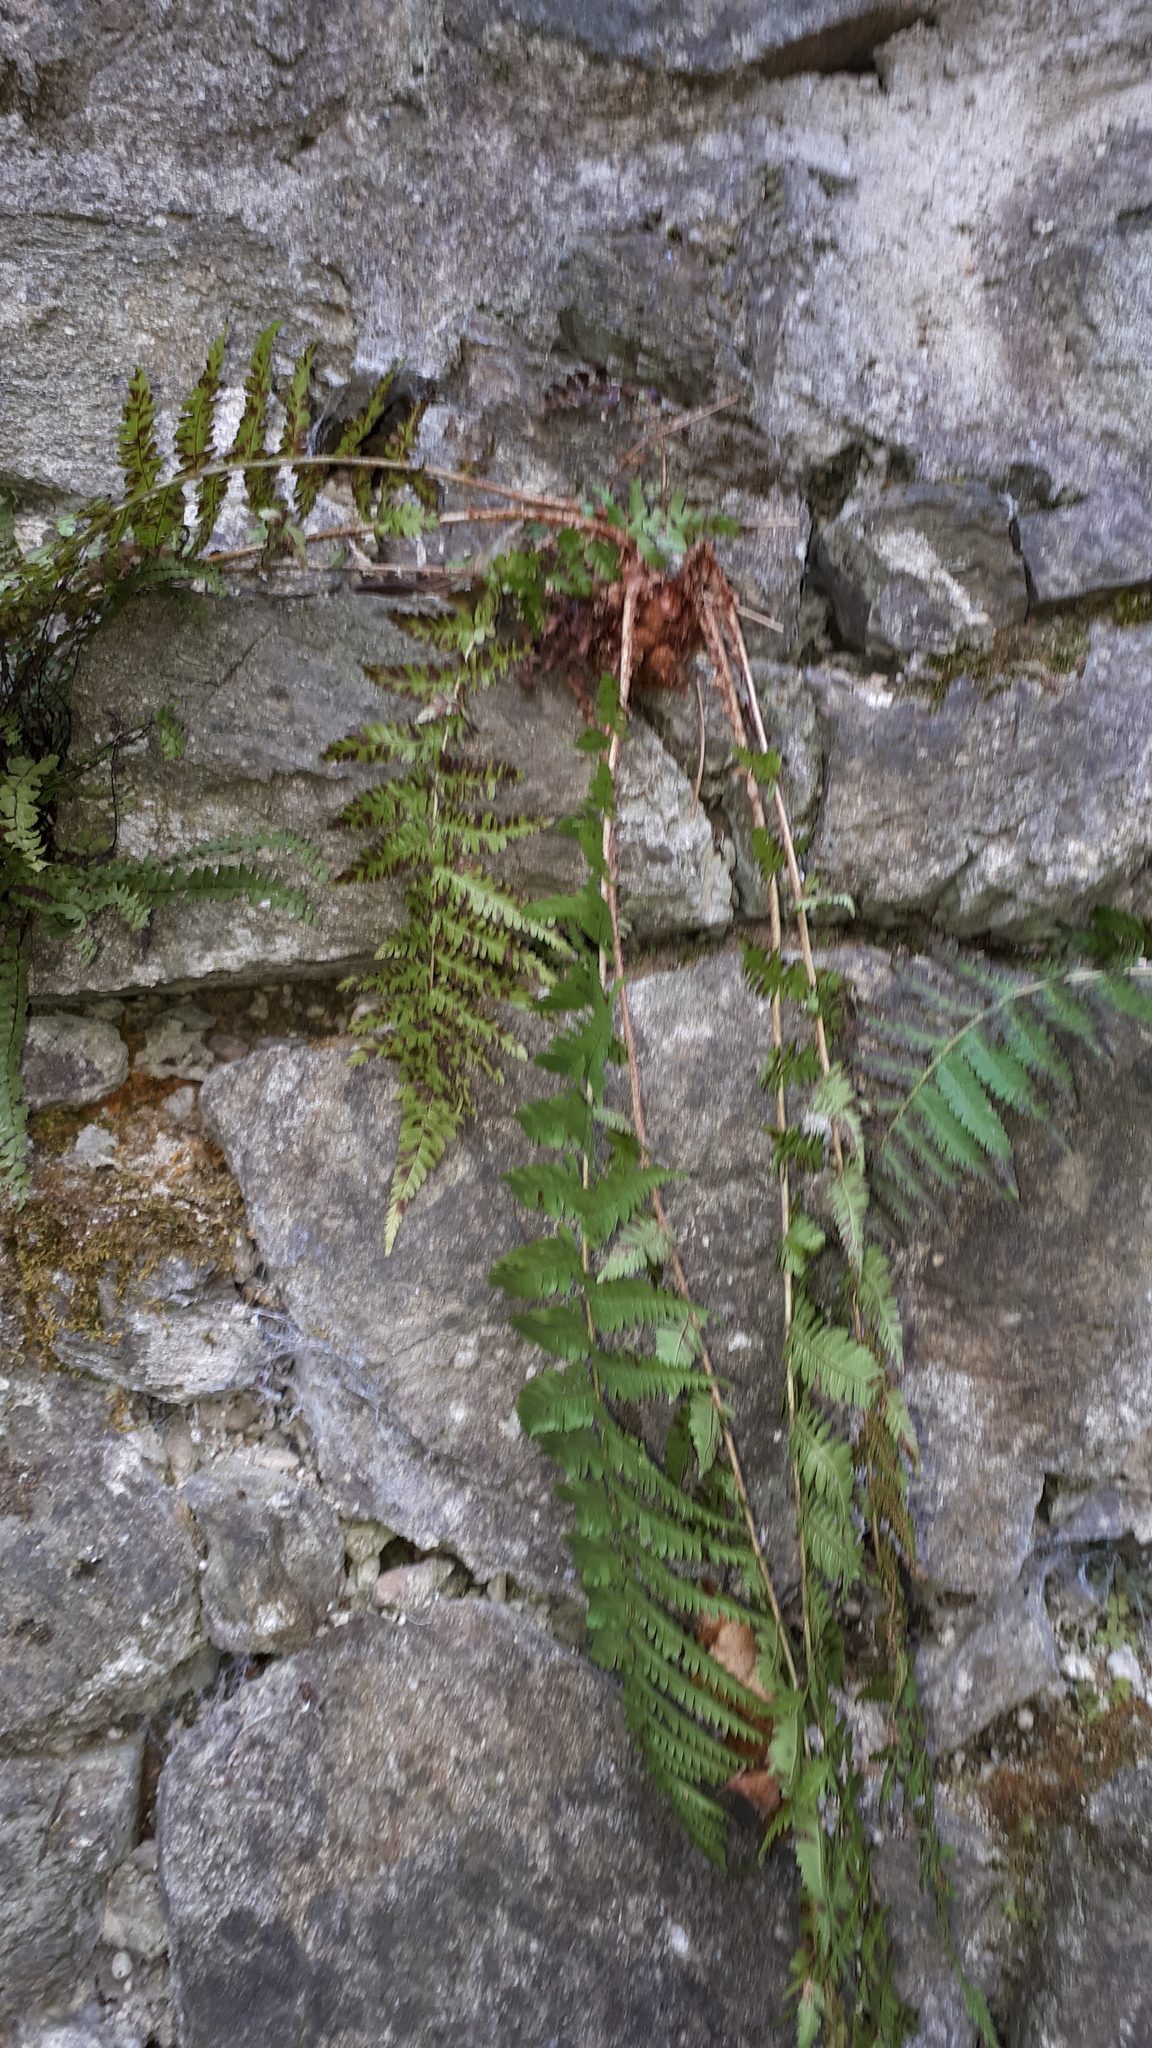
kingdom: Plantae
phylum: Tracheophyta
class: Polypodiopsida
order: Polypodiales
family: Dryopteridaceae
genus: Dryopteris
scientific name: Dryopteris filix-mas
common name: Male fern
